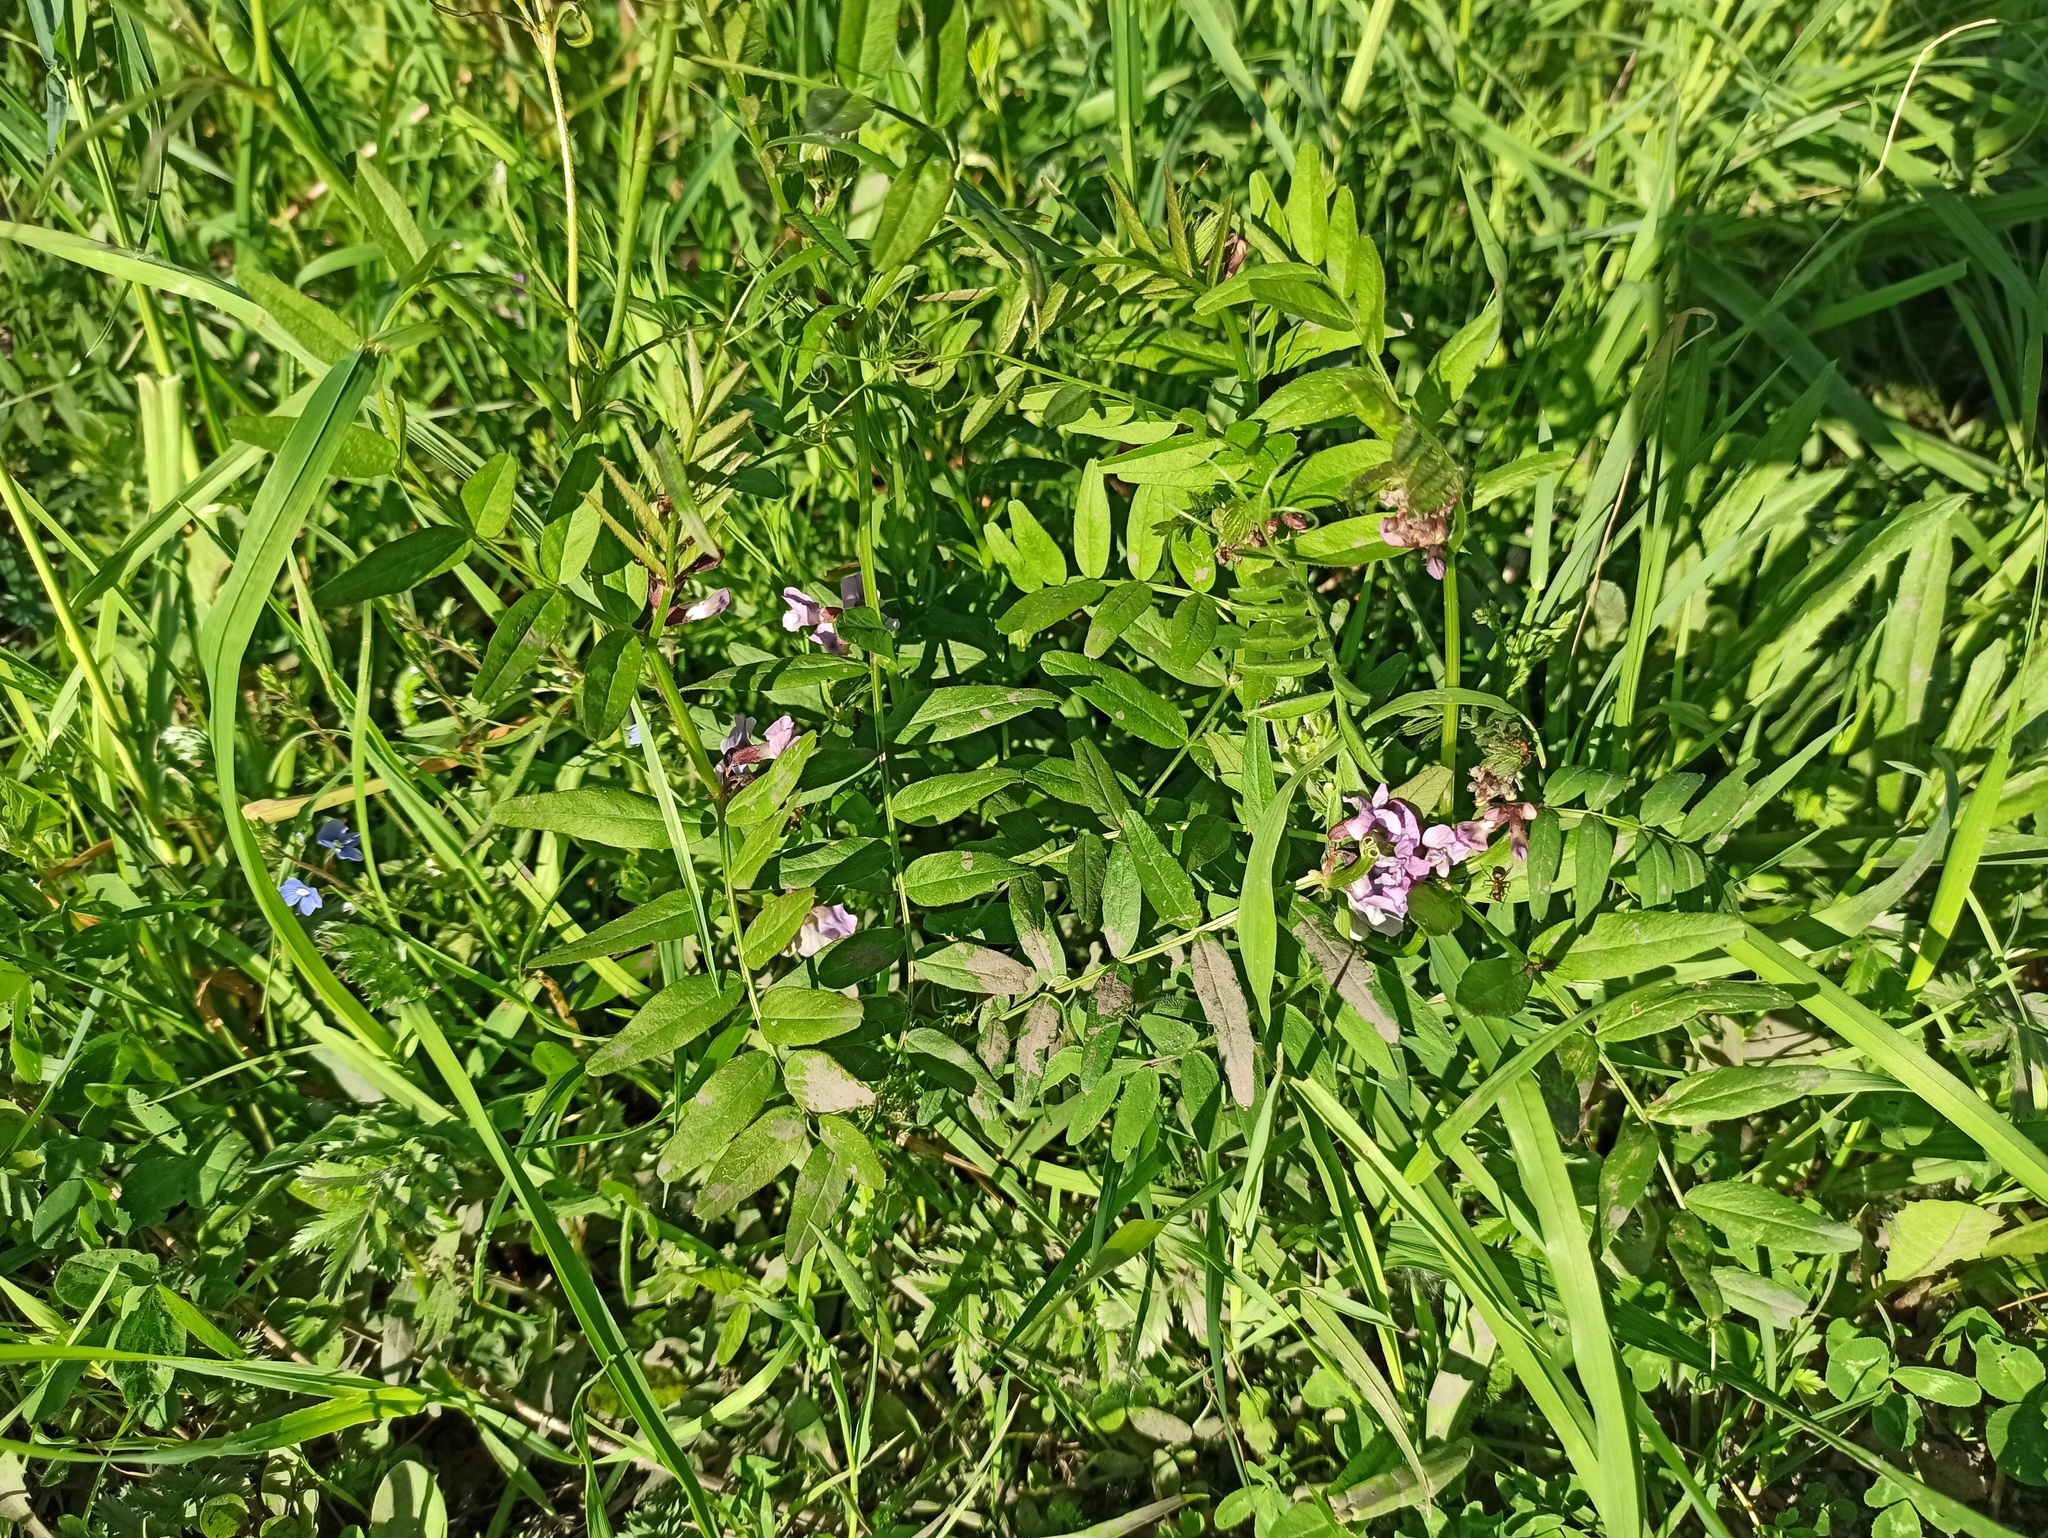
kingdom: Plantae
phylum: Tracheophyta
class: Magnoliopsida
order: Fabales
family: Fabaceae
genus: Vicia
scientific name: Vicia sepium
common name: Bush vetch
